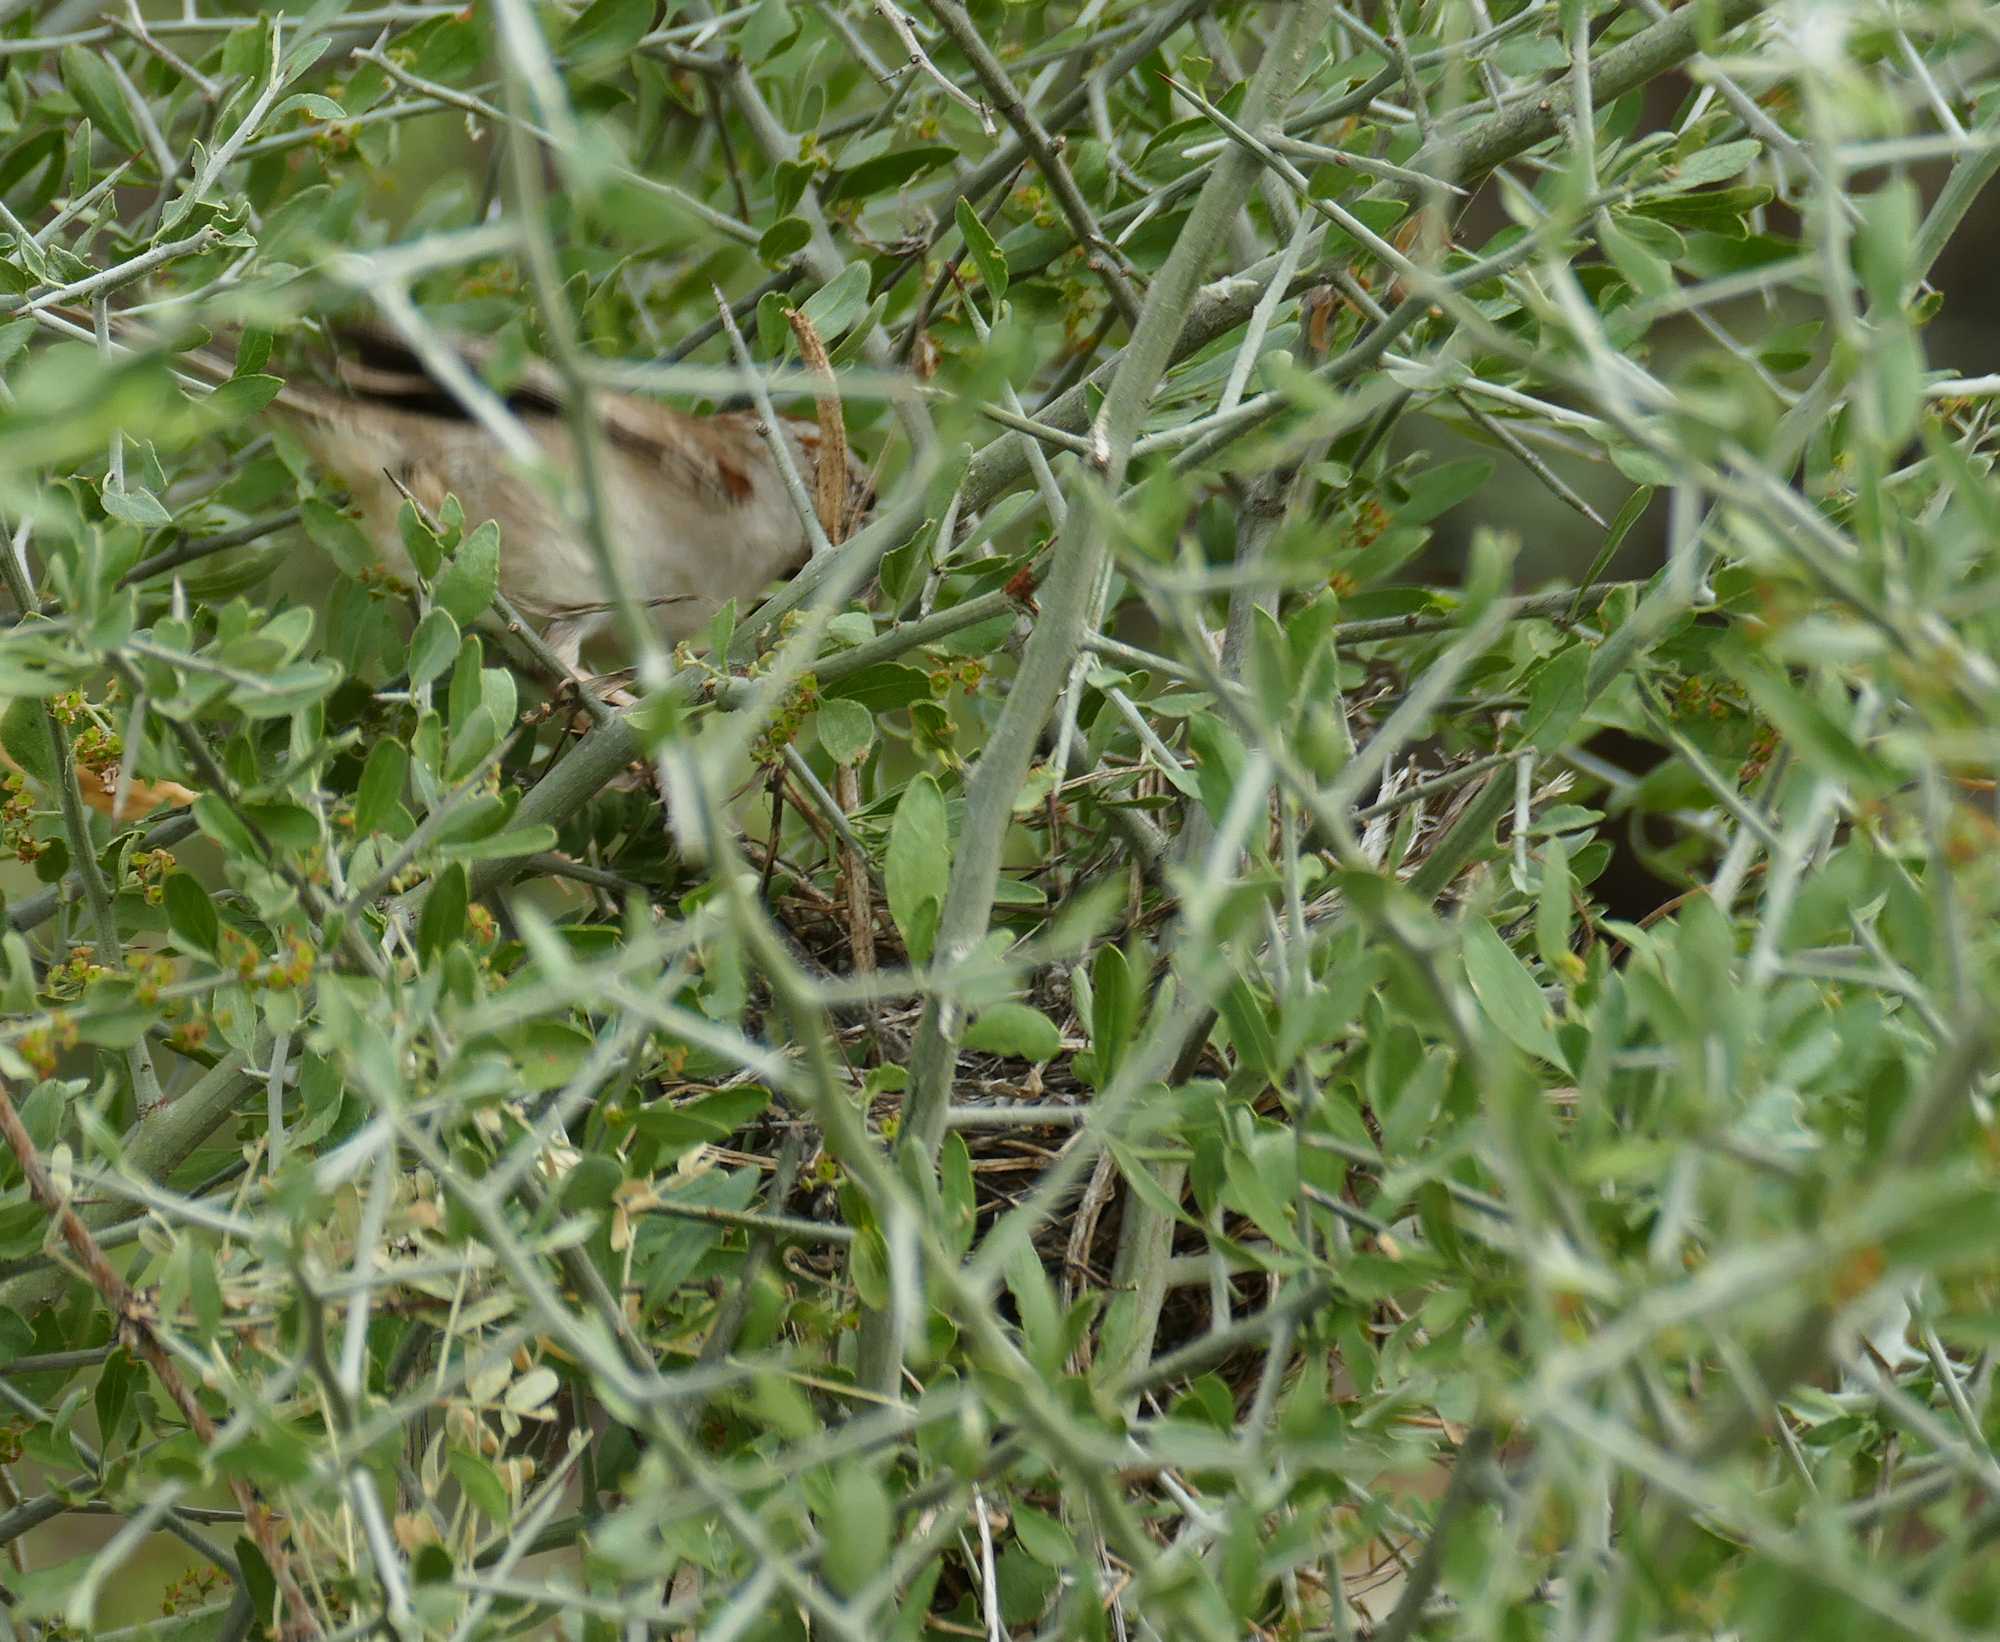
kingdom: Animalia
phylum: Chordata
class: Aves
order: Passeriformes
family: Passerellidae
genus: Peucaea
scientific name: Peucaea carpalis
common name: Rufous-winged sparrow
